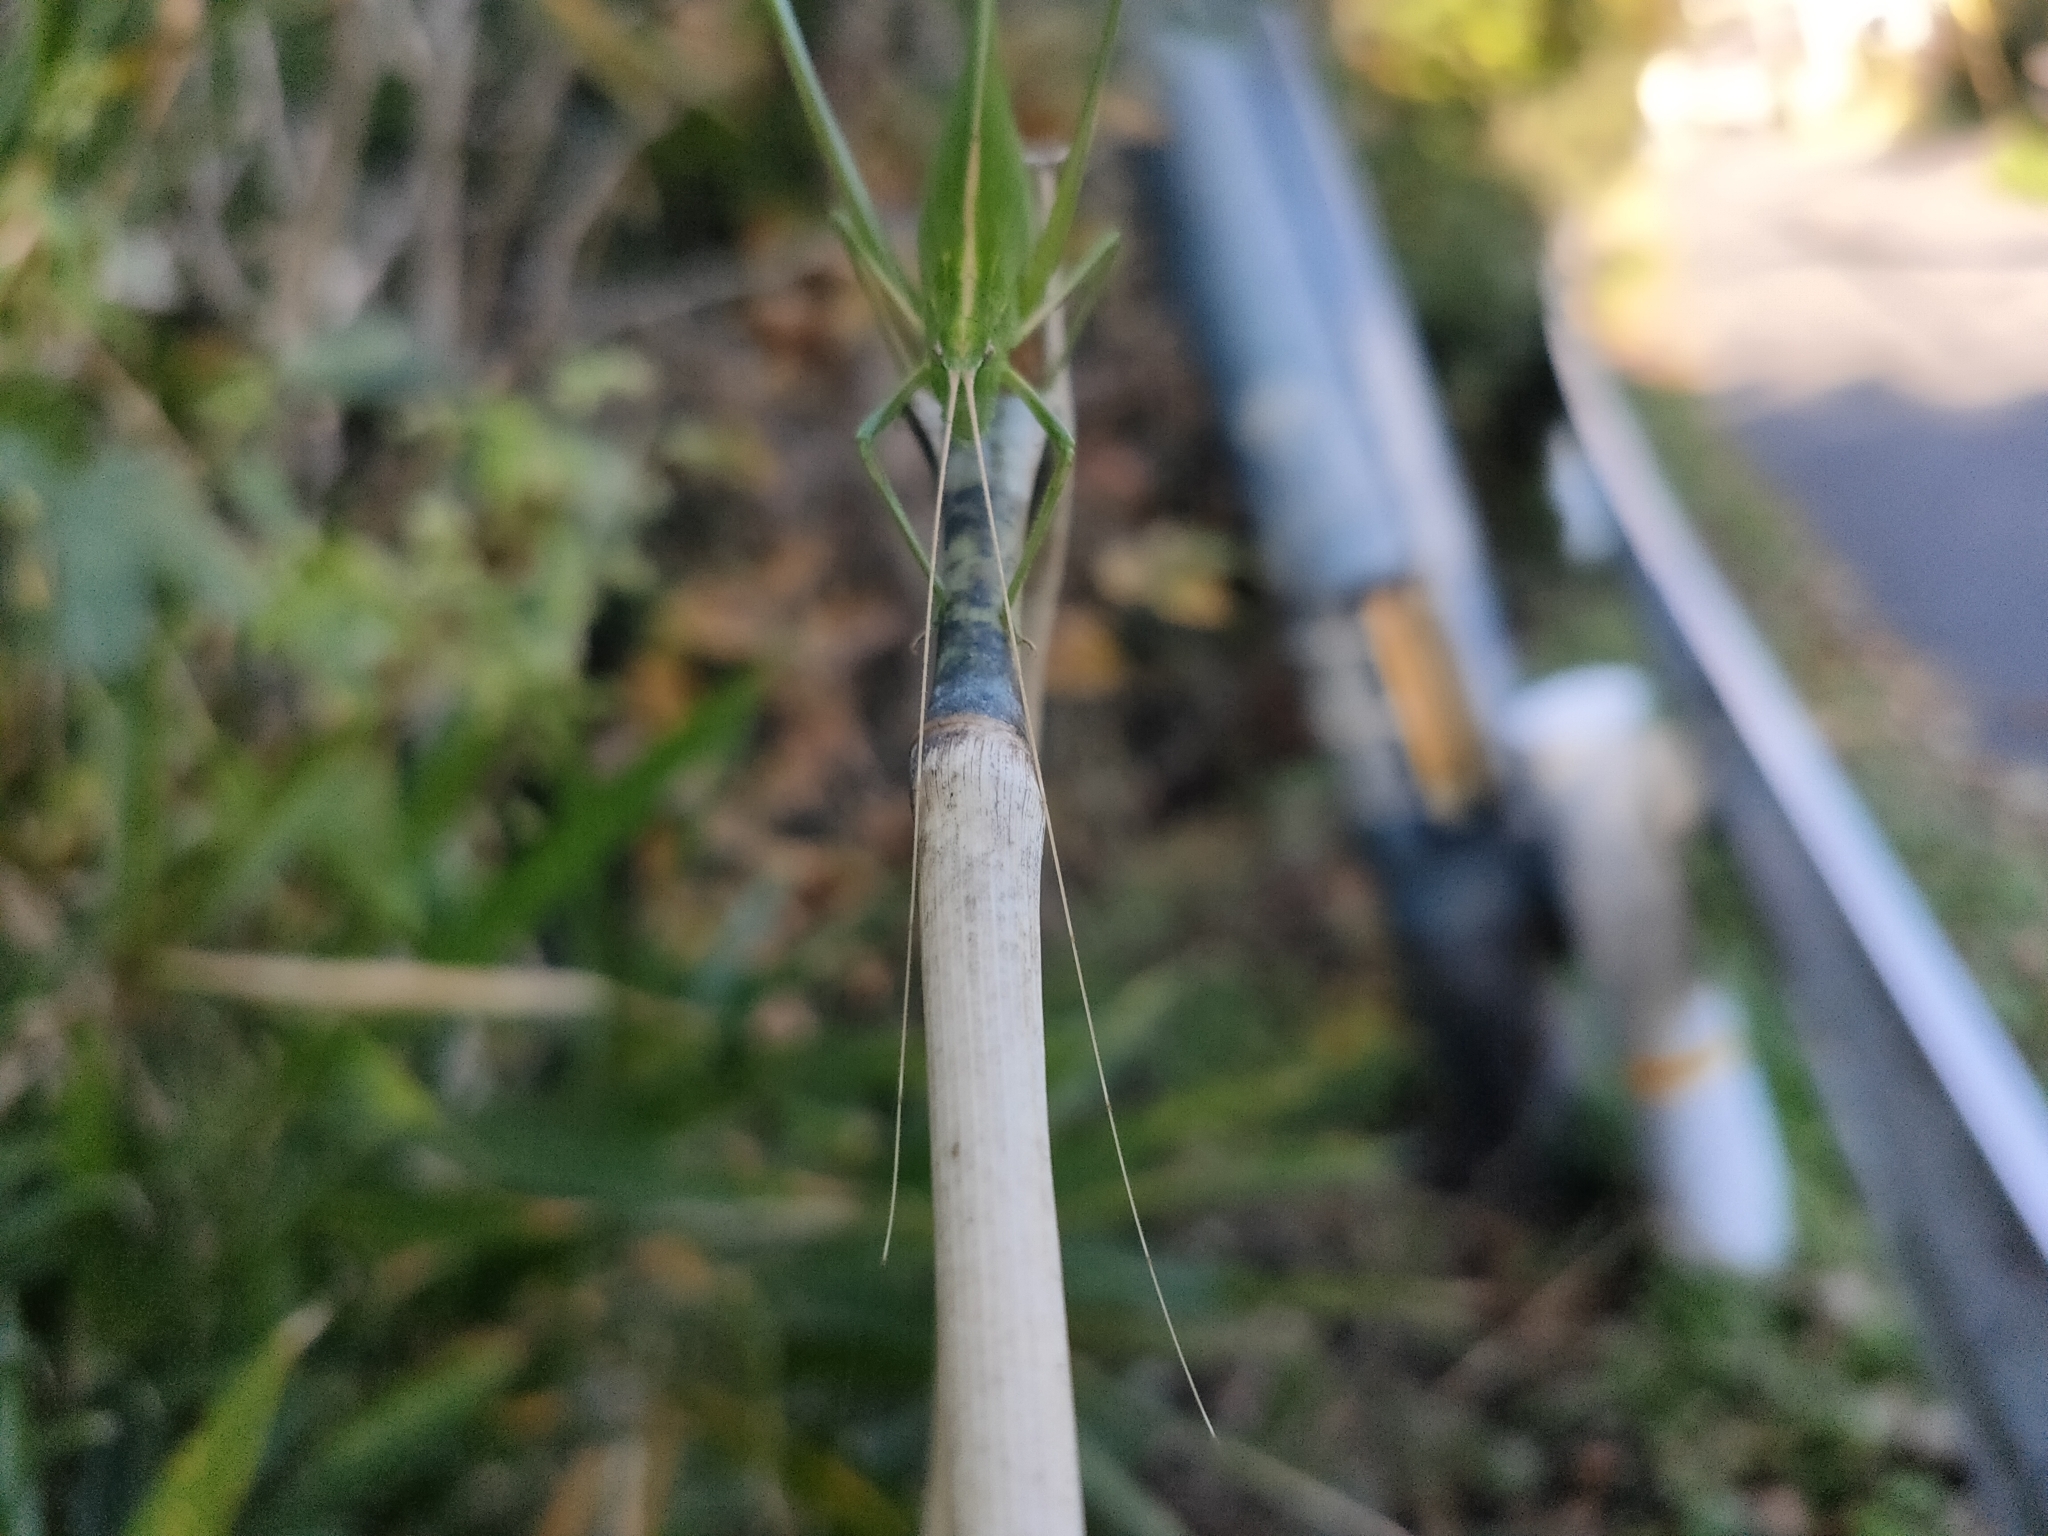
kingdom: Animalia
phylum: Arthropoda
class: Insecta
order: Orthoptera
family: Tettigoniidae
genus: Ducetia
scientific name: Ducetia japonica
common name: Pacific ducetia
